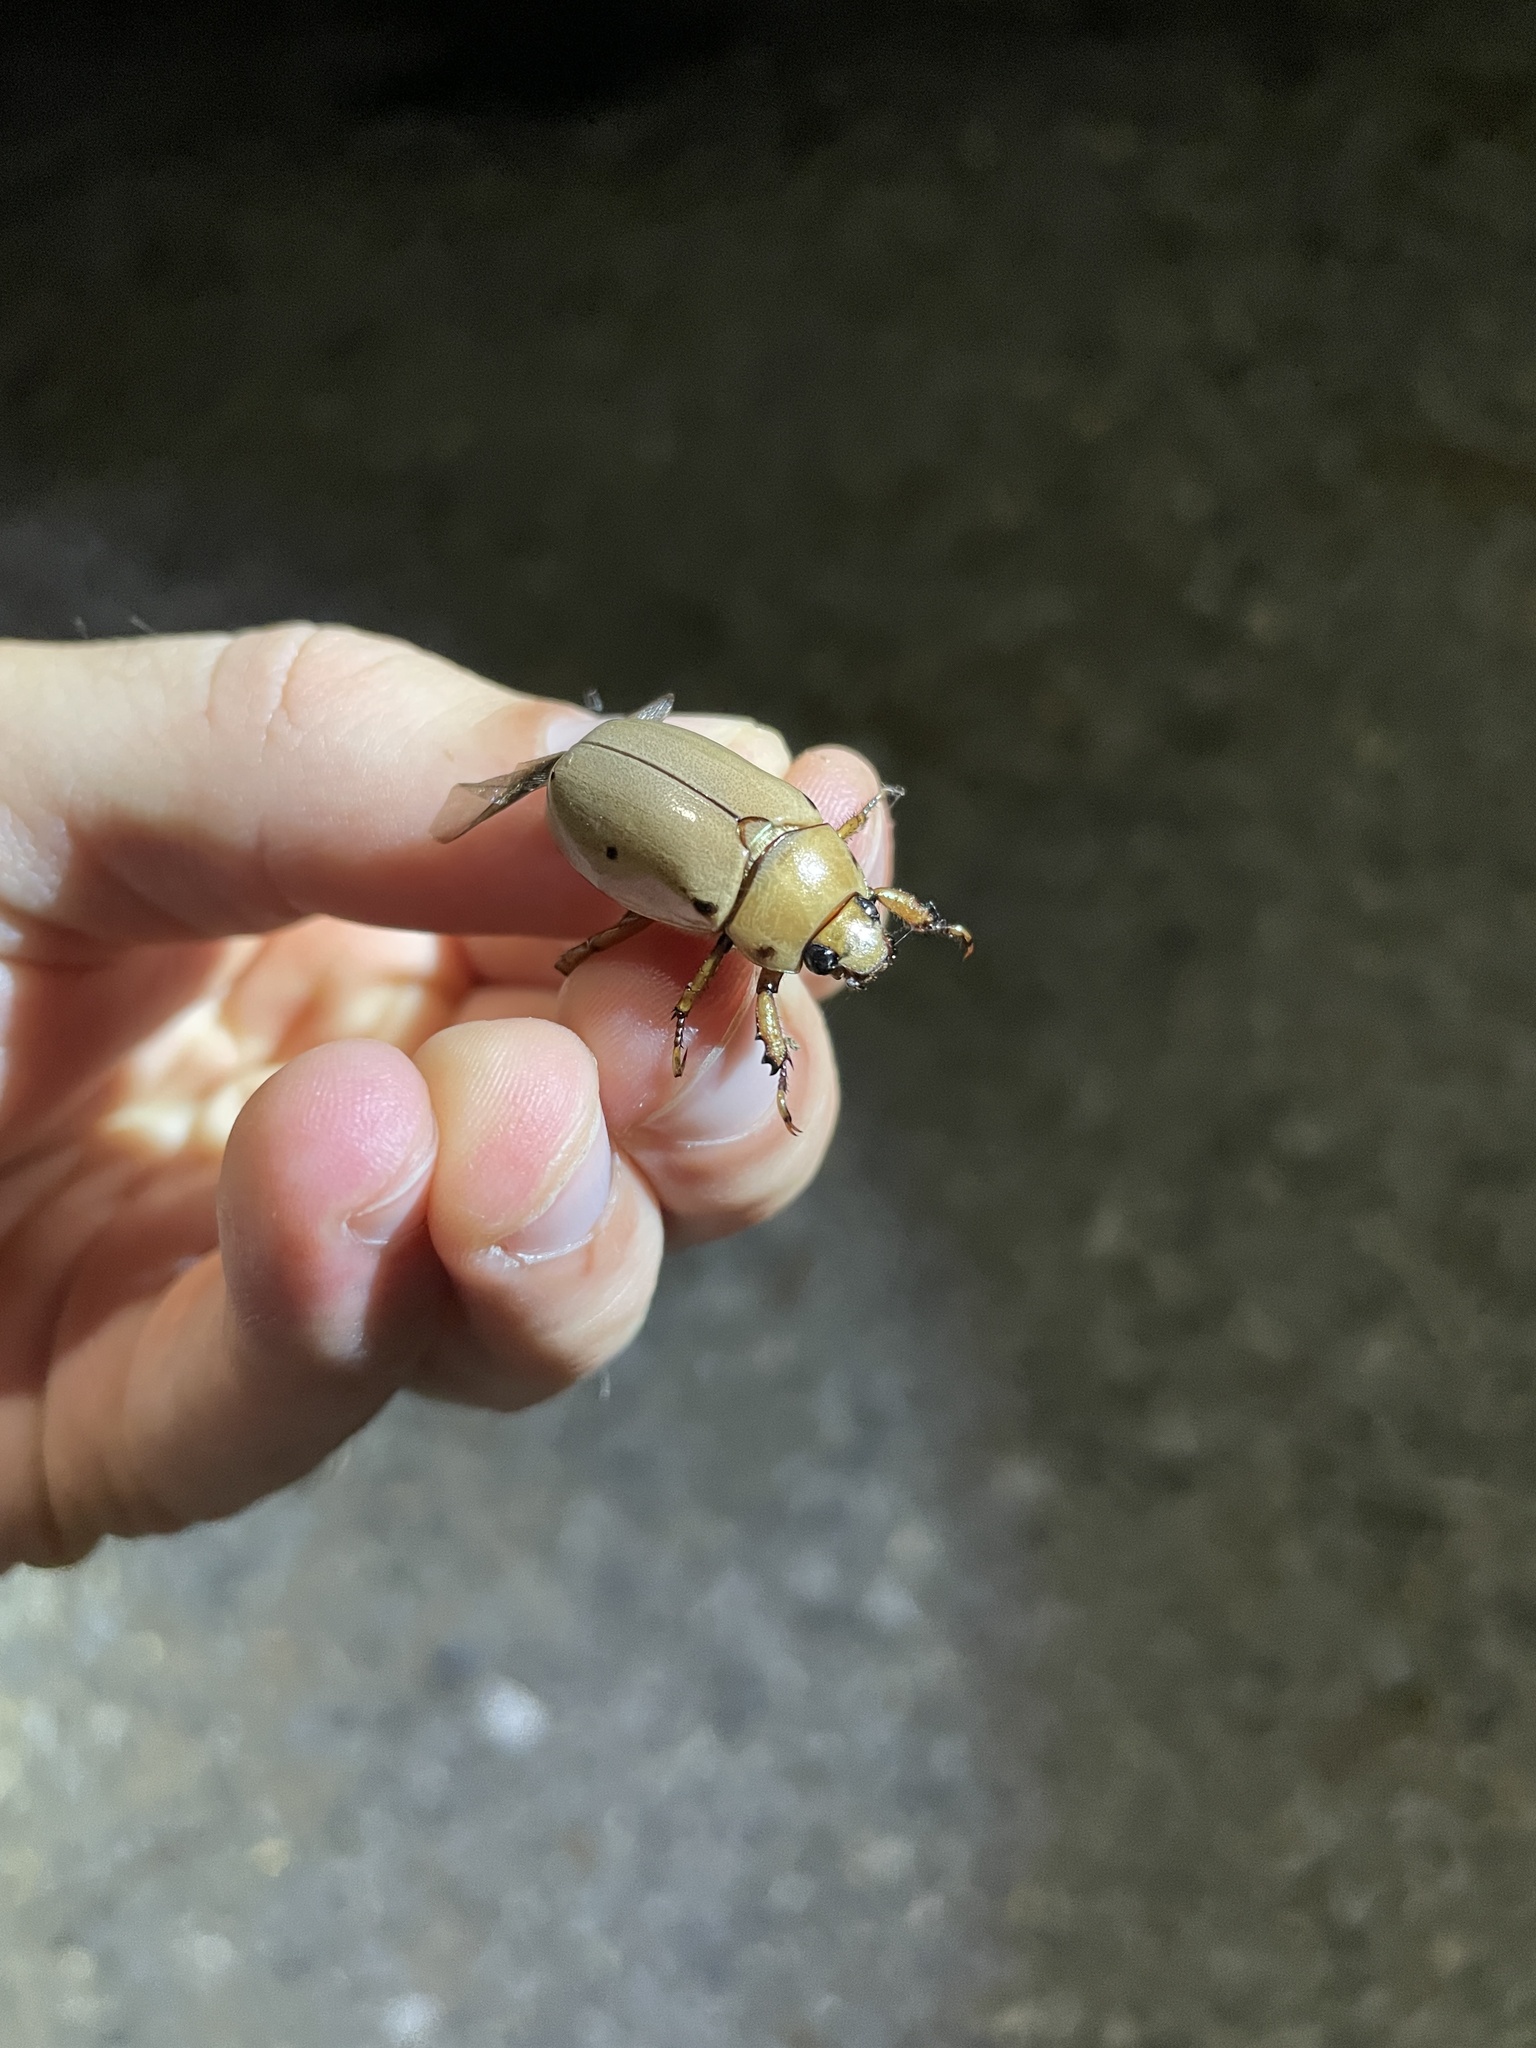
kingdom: Animalia
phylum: Arthropoda
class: Insecta
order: Coleoptera
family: Scarabaeidae
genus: Pelidnota
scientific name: Pelidnota punctata
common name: Grapevine beetle
